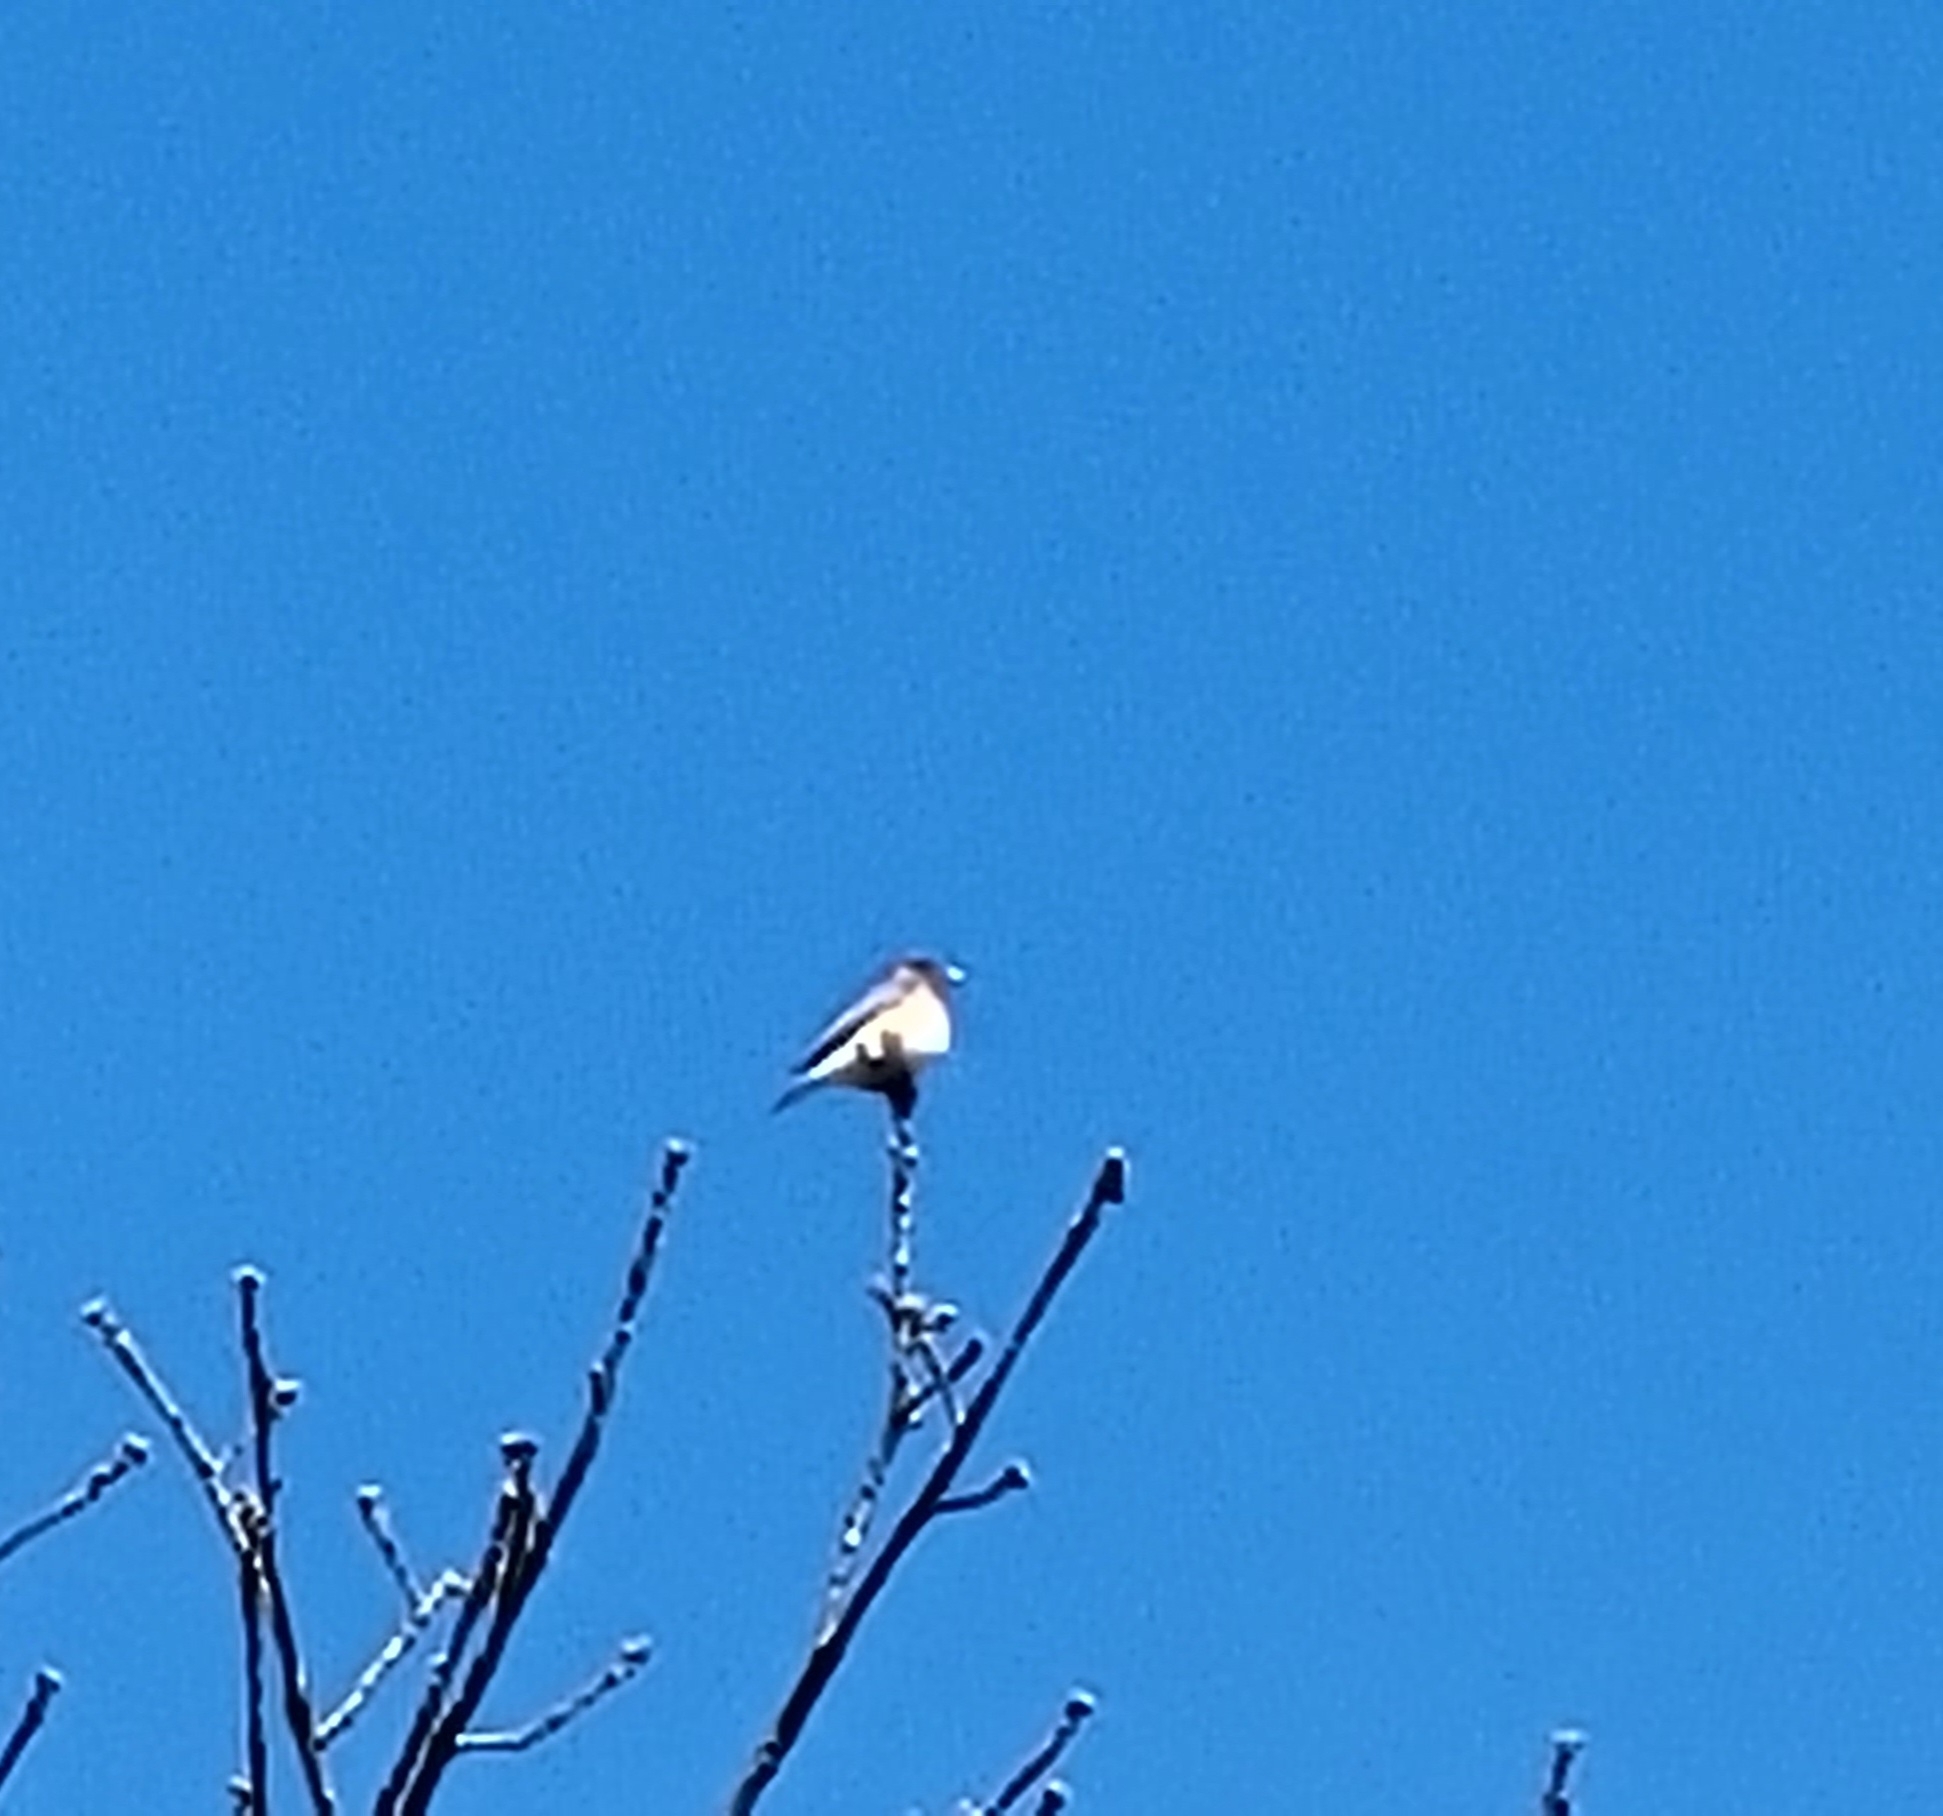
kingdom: Animalia
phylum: Chordata
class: Aves
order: Passeriformes
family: Turdidae
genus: Sialia
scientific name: Sialia sialis
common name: Eastern bluebird
